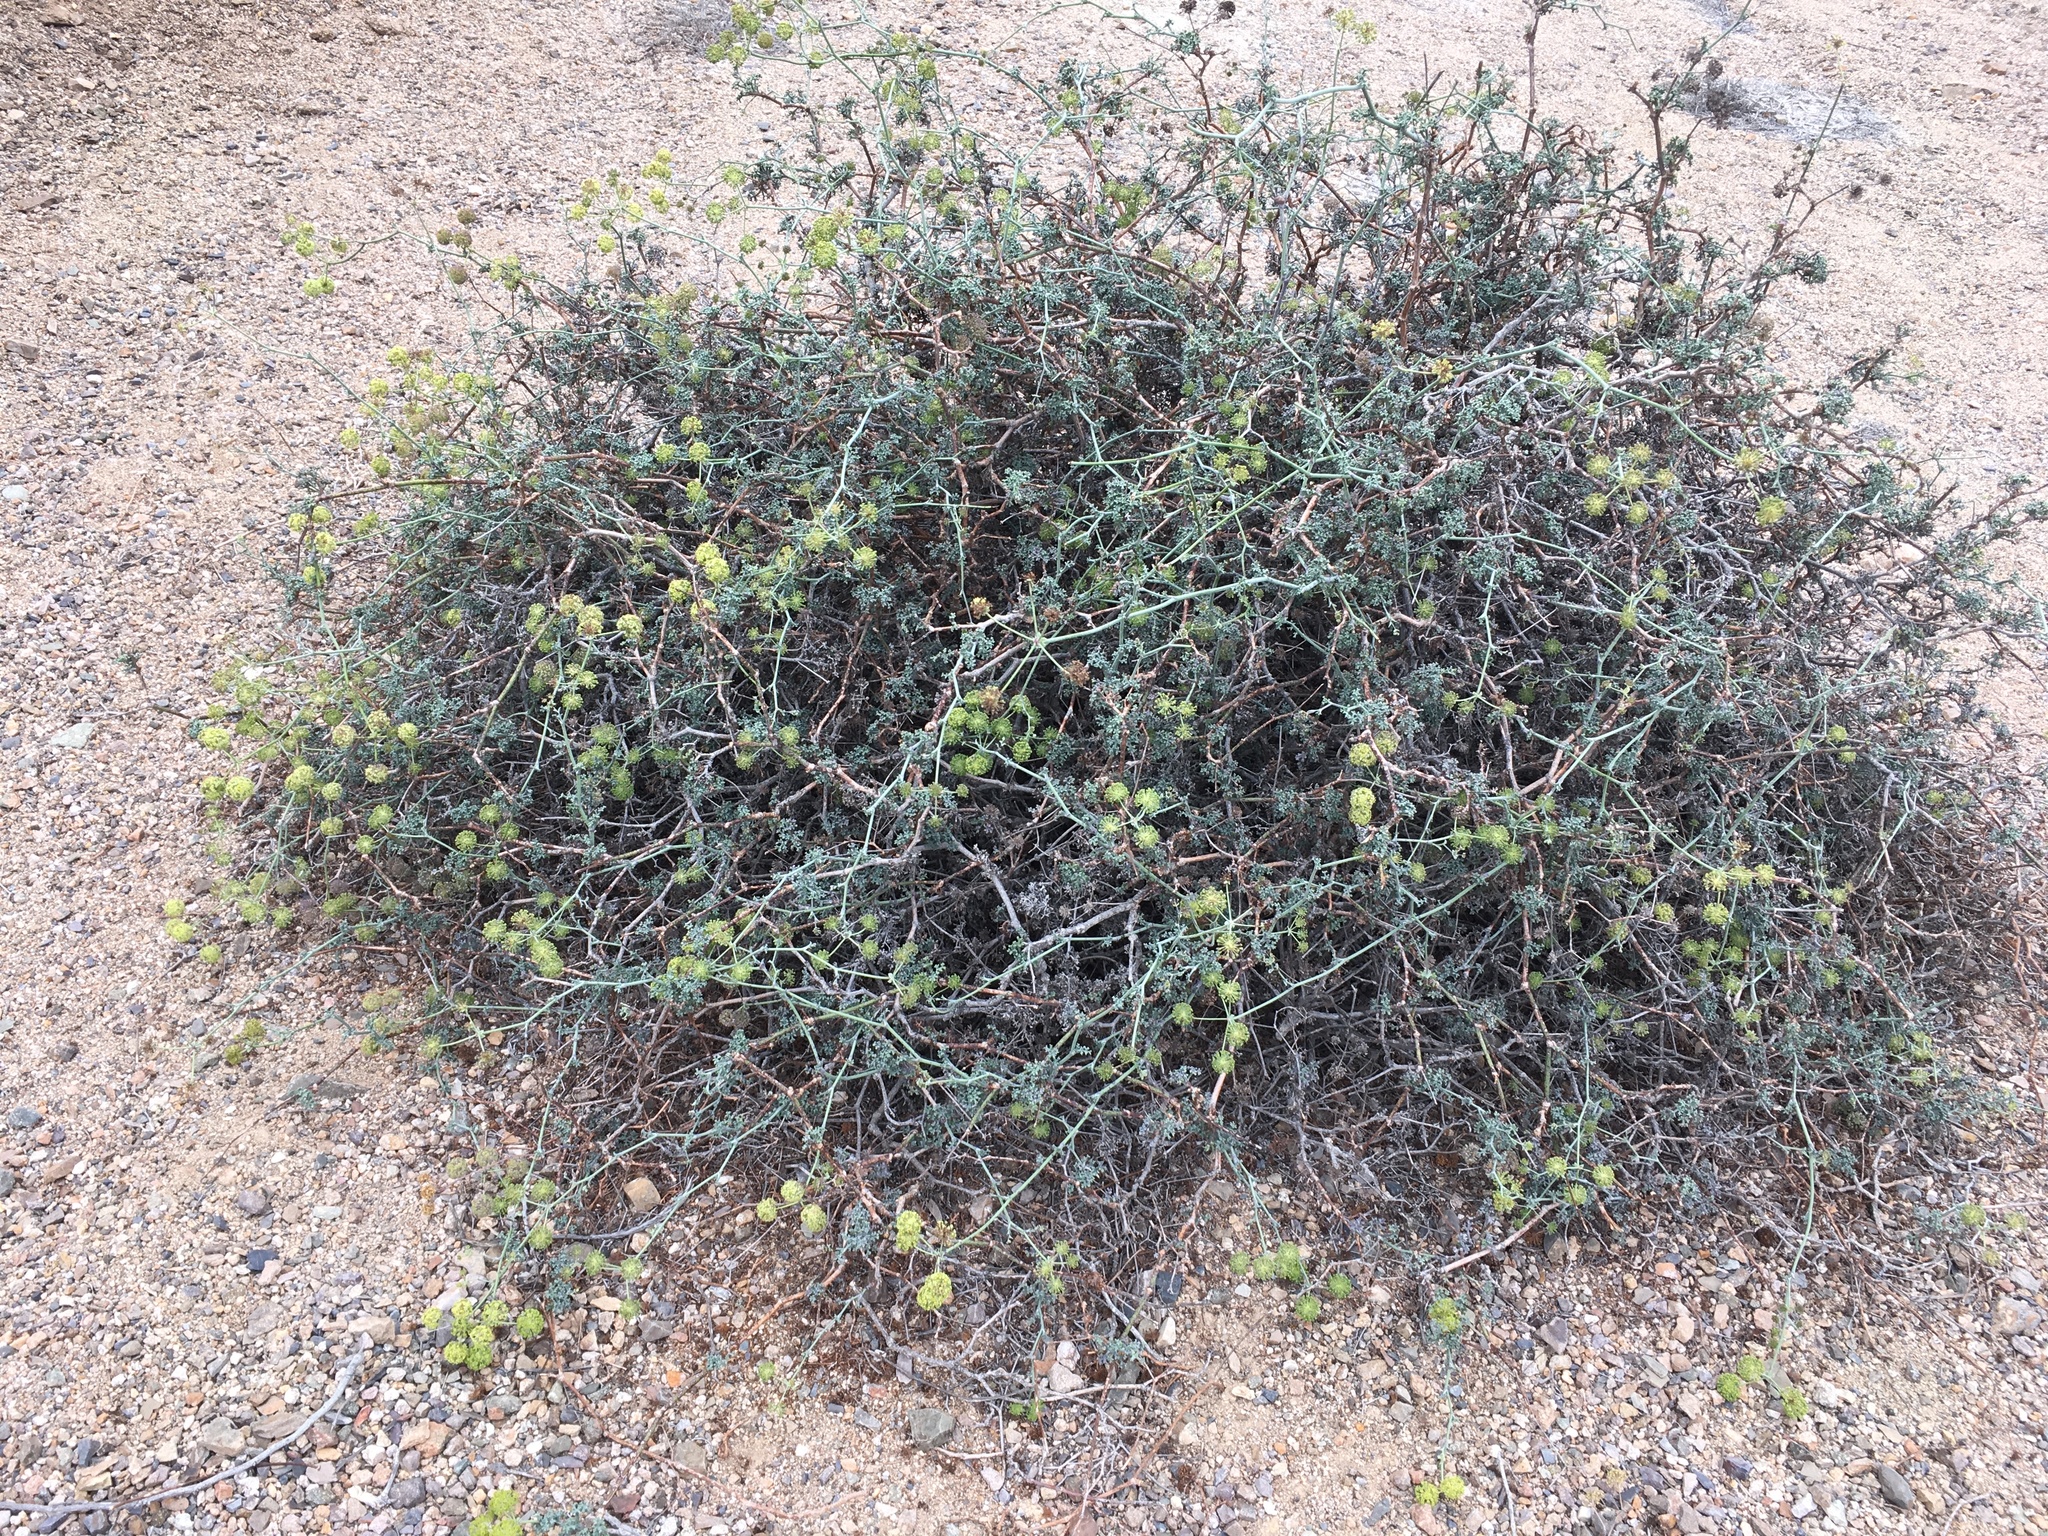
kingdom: Plantae
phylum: Tracheophyta
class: Magnoliopsida
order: Apiales
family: Apiaceae
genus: Eremocharis
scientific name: Eremocharis fruticosa
